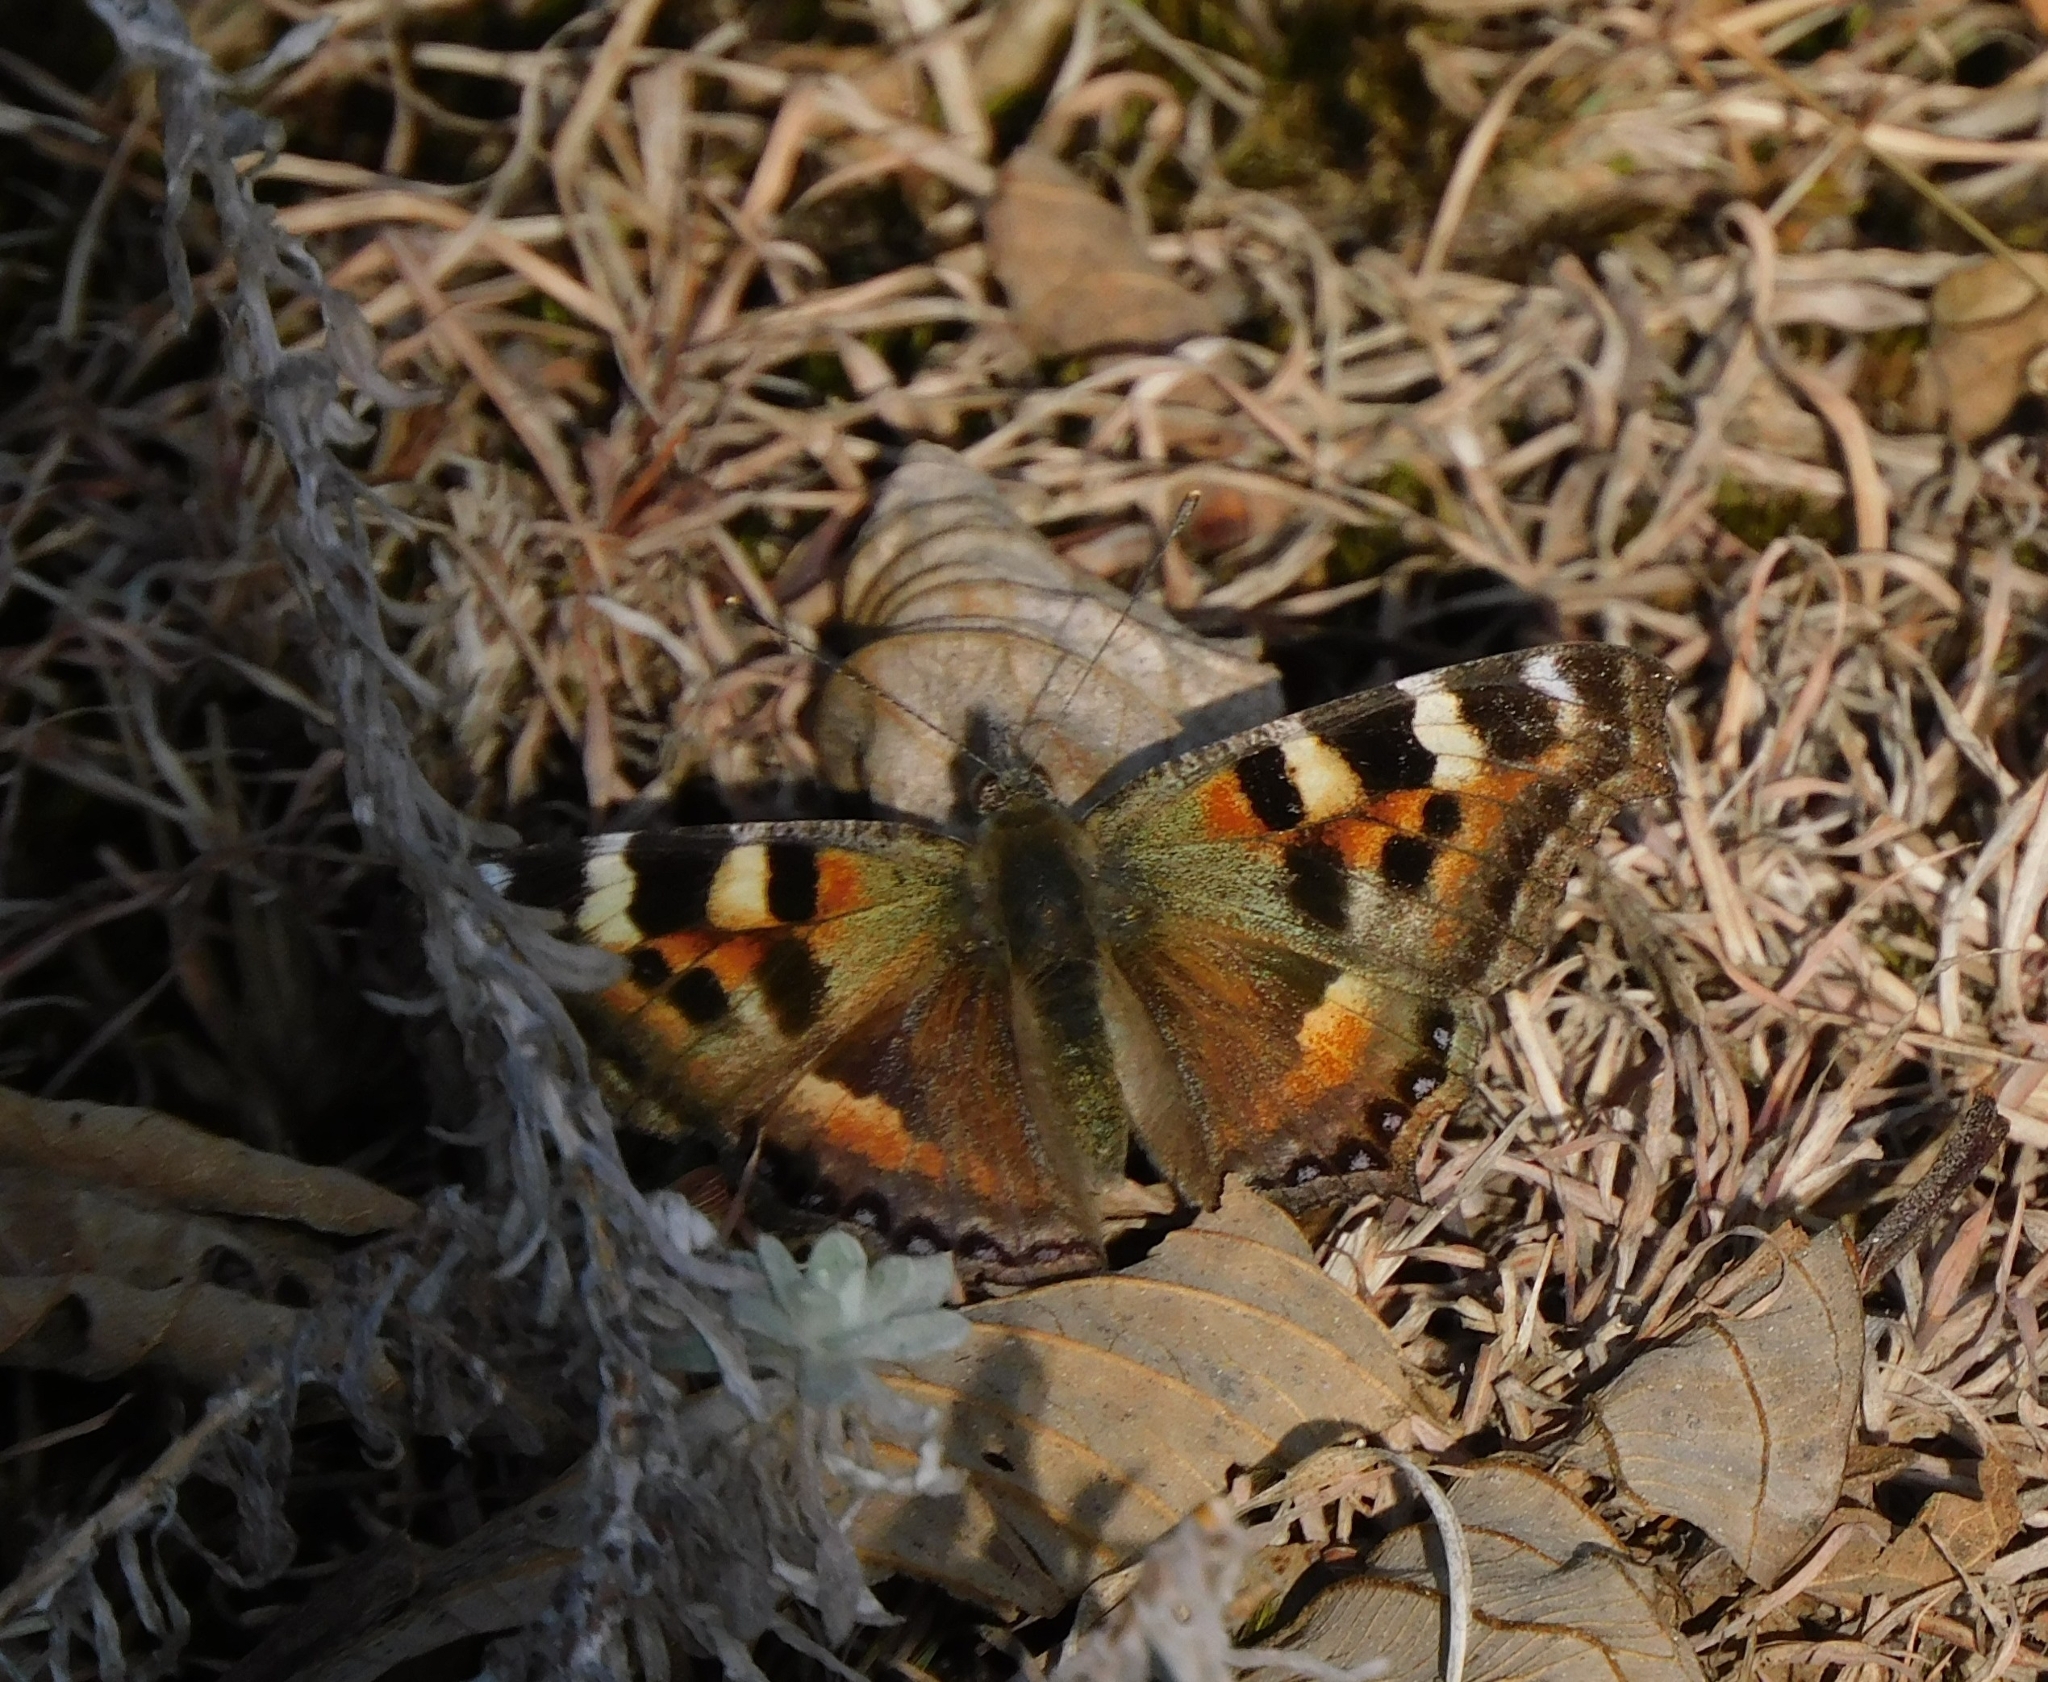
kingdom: Animalia
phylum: Arthropoda
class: Insecta
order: Lepidoptera
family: Nymphalidae
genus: Aglais
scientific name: Aglais caschmirensis
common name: Indian tortoiseshell
